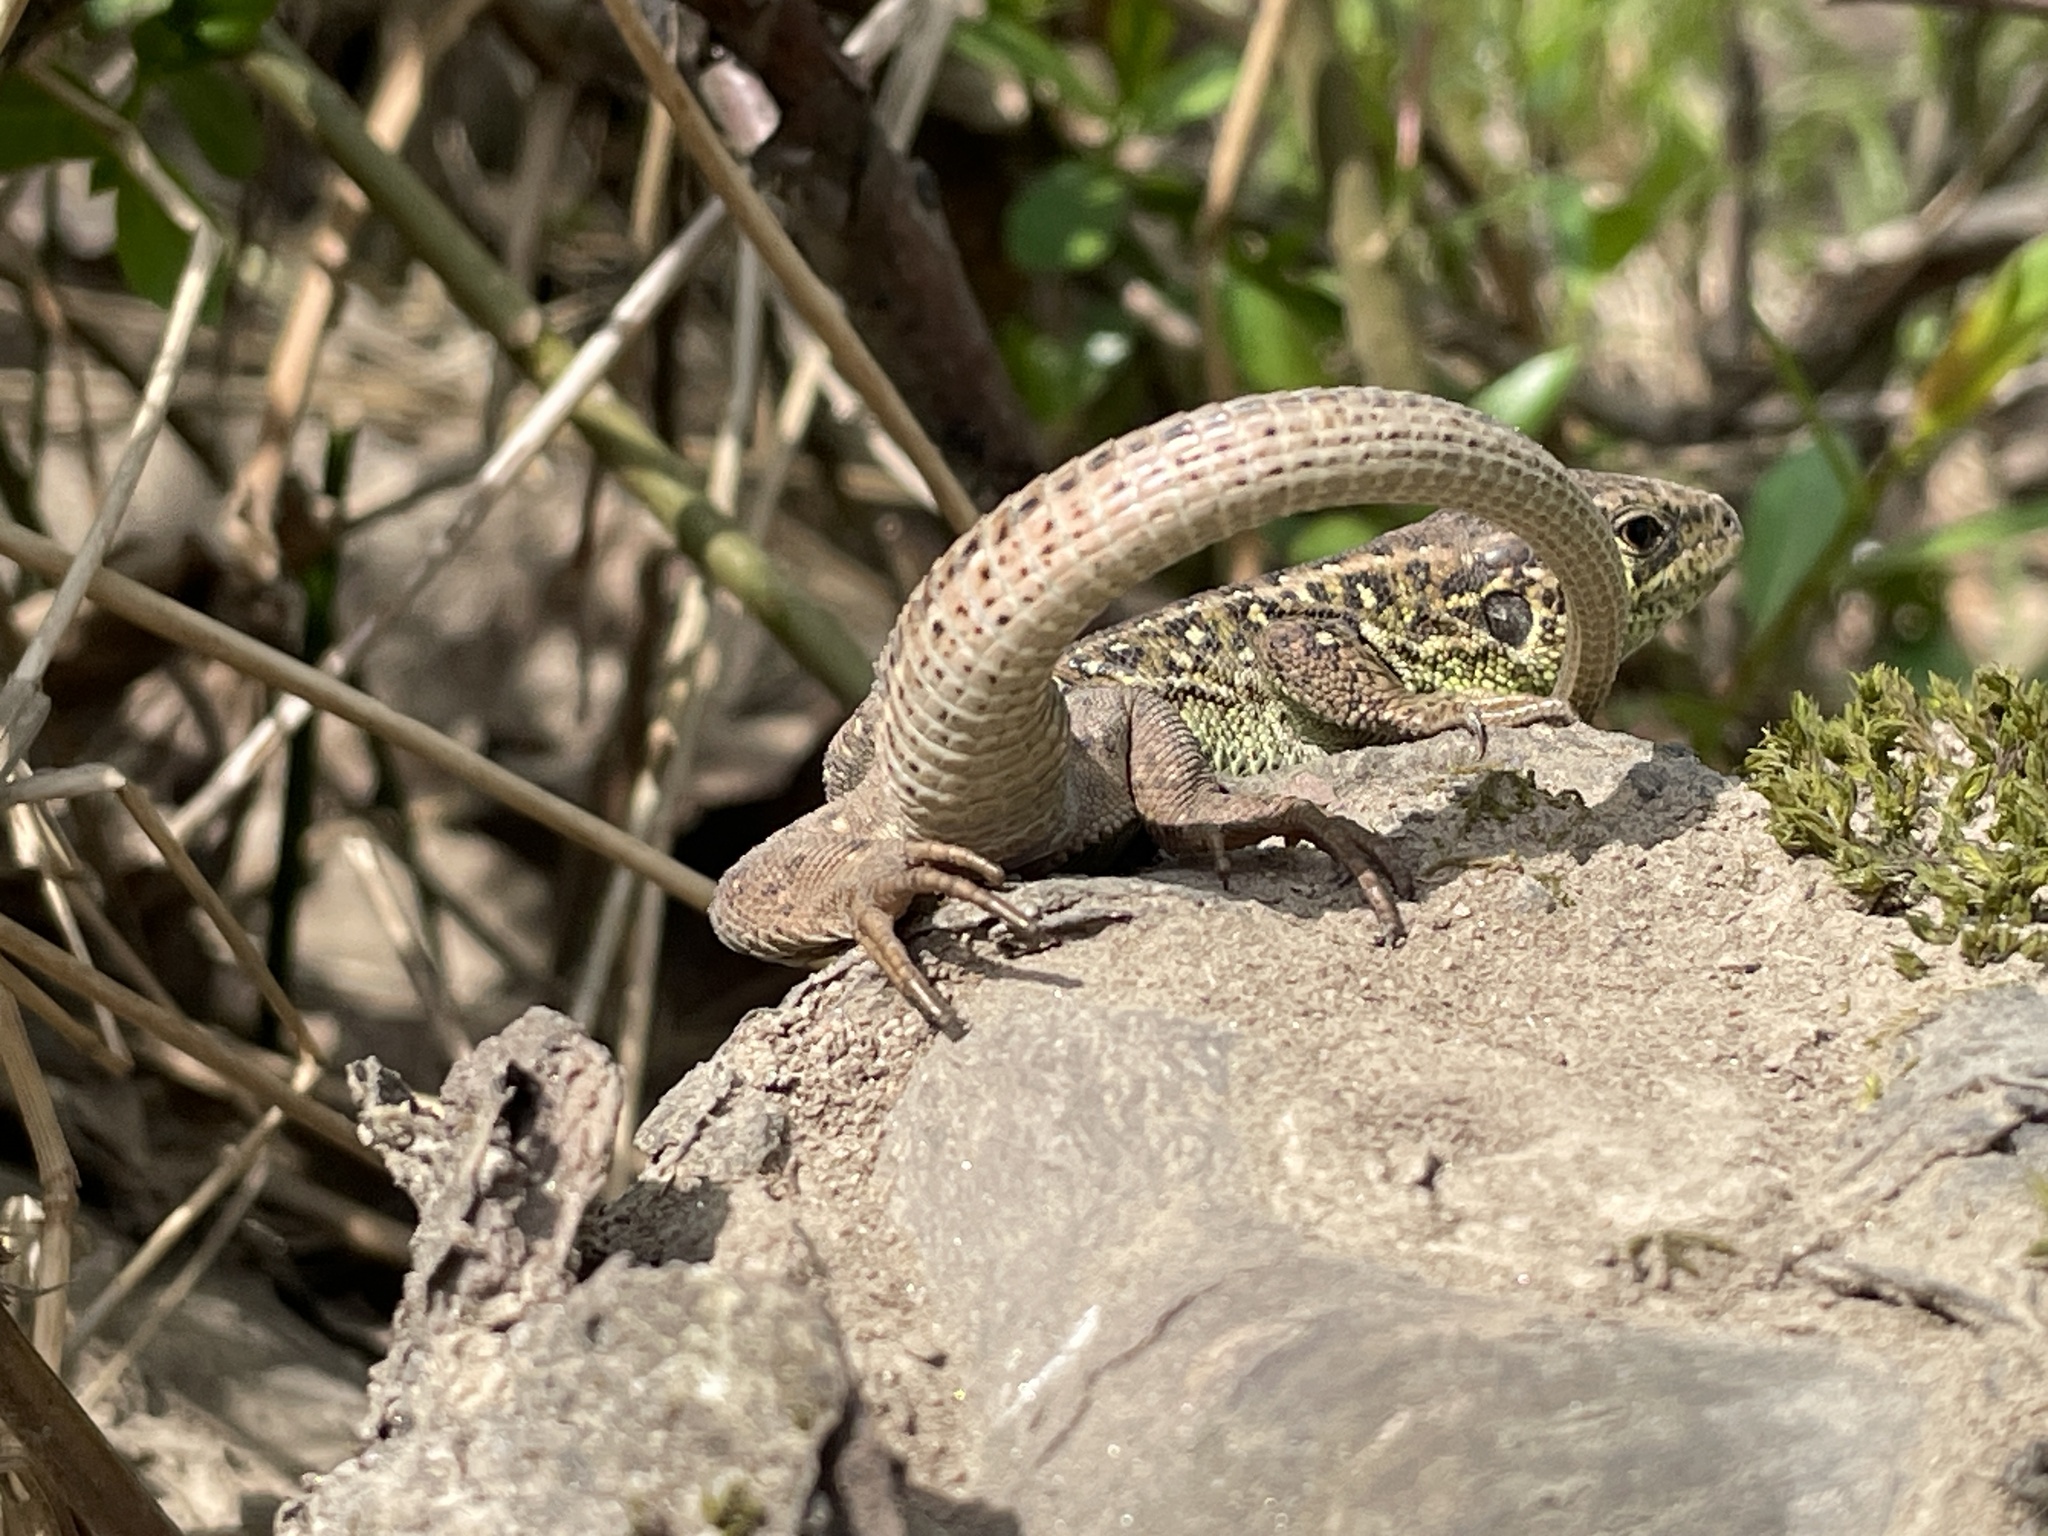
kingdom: Animalia
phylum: Chordata
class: Squamata
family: Lacertidae
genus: Lacerta
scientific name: Lacerta agilis
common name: Sand lizard
